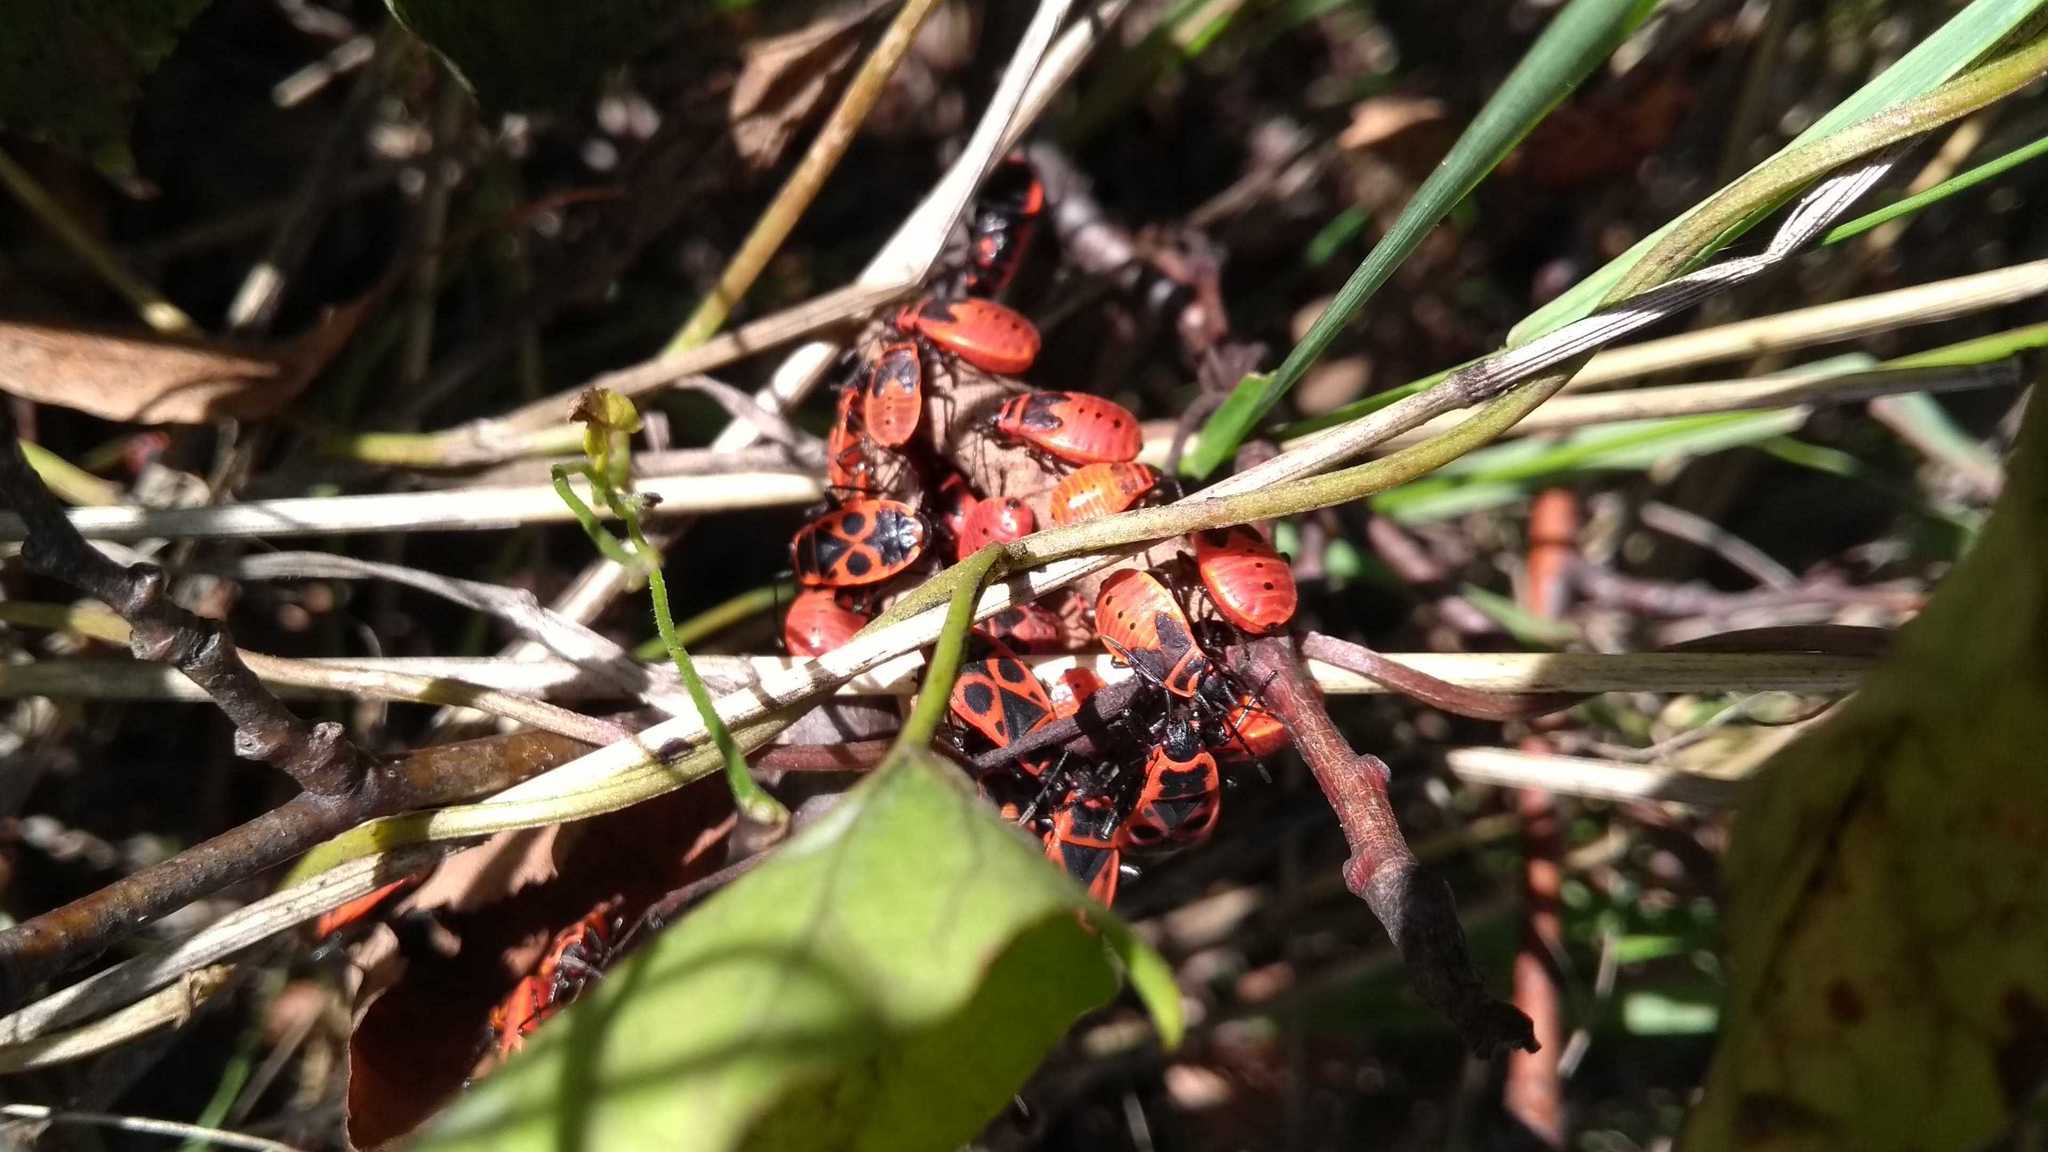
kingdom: Animalia
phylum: Arthropoda
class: Insecta
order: Hemiptera
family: Pyrrhocoridae
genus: Pyrrhocoris
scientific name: Pyrrhocoris apterus
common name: Firebug
